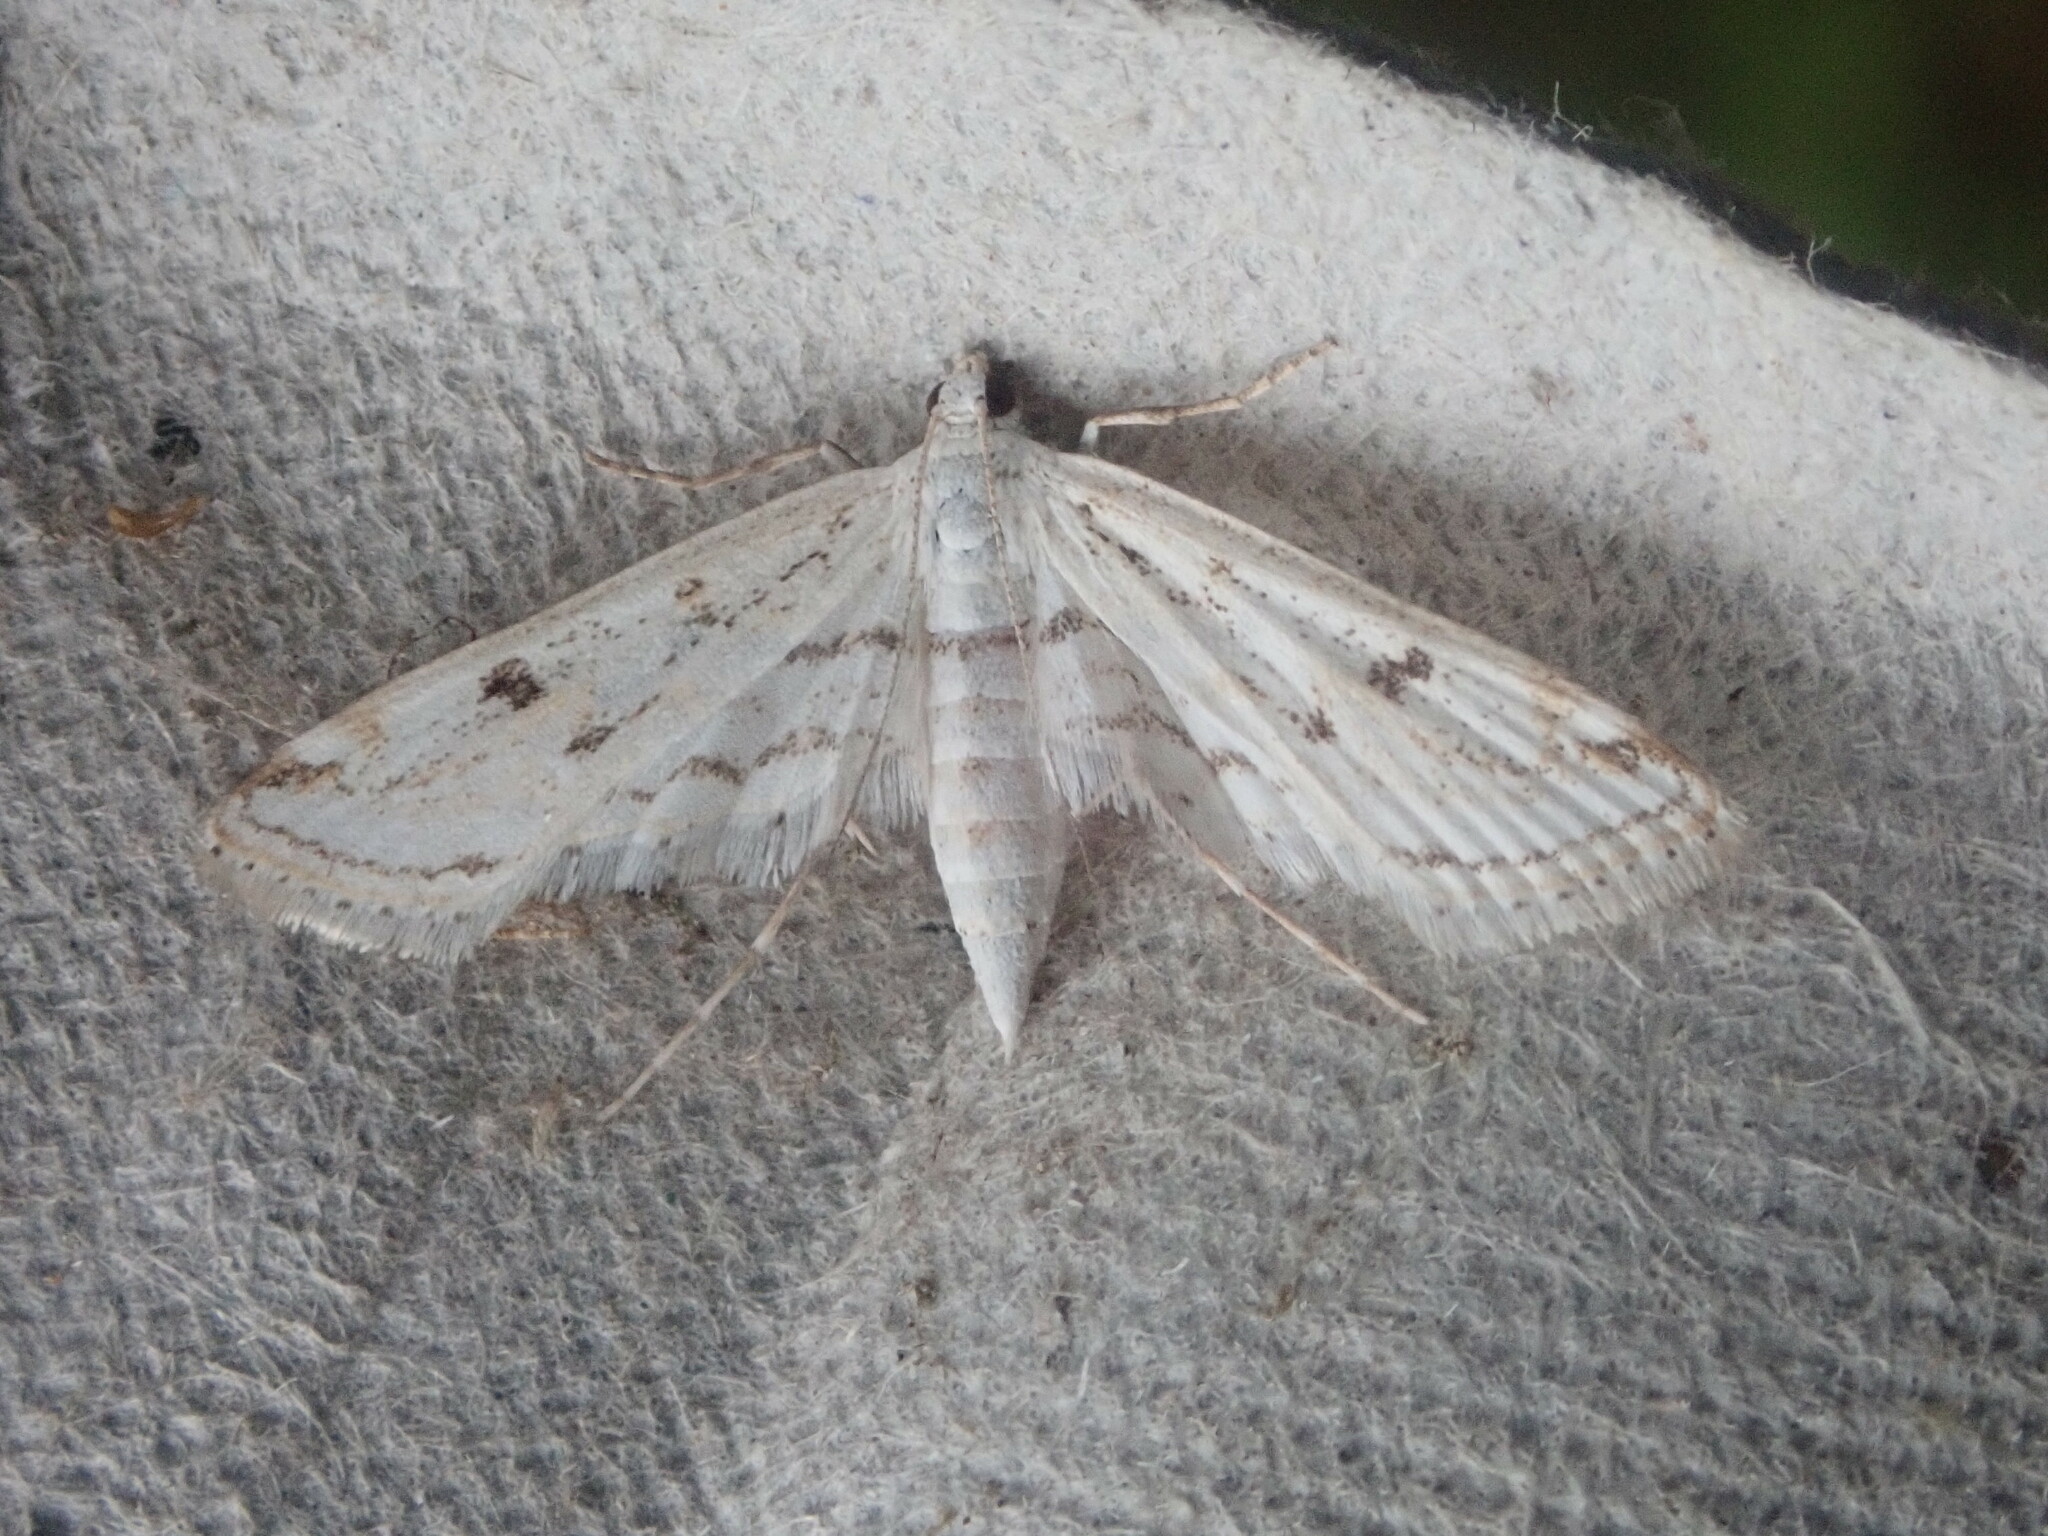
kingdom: Animalia
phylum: Arthropoda
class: Insecta
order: Lepidoptera
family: Crambidae
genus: Parapoynx
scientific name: Parapoynx allionealis
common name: Bladderwort casemaker
